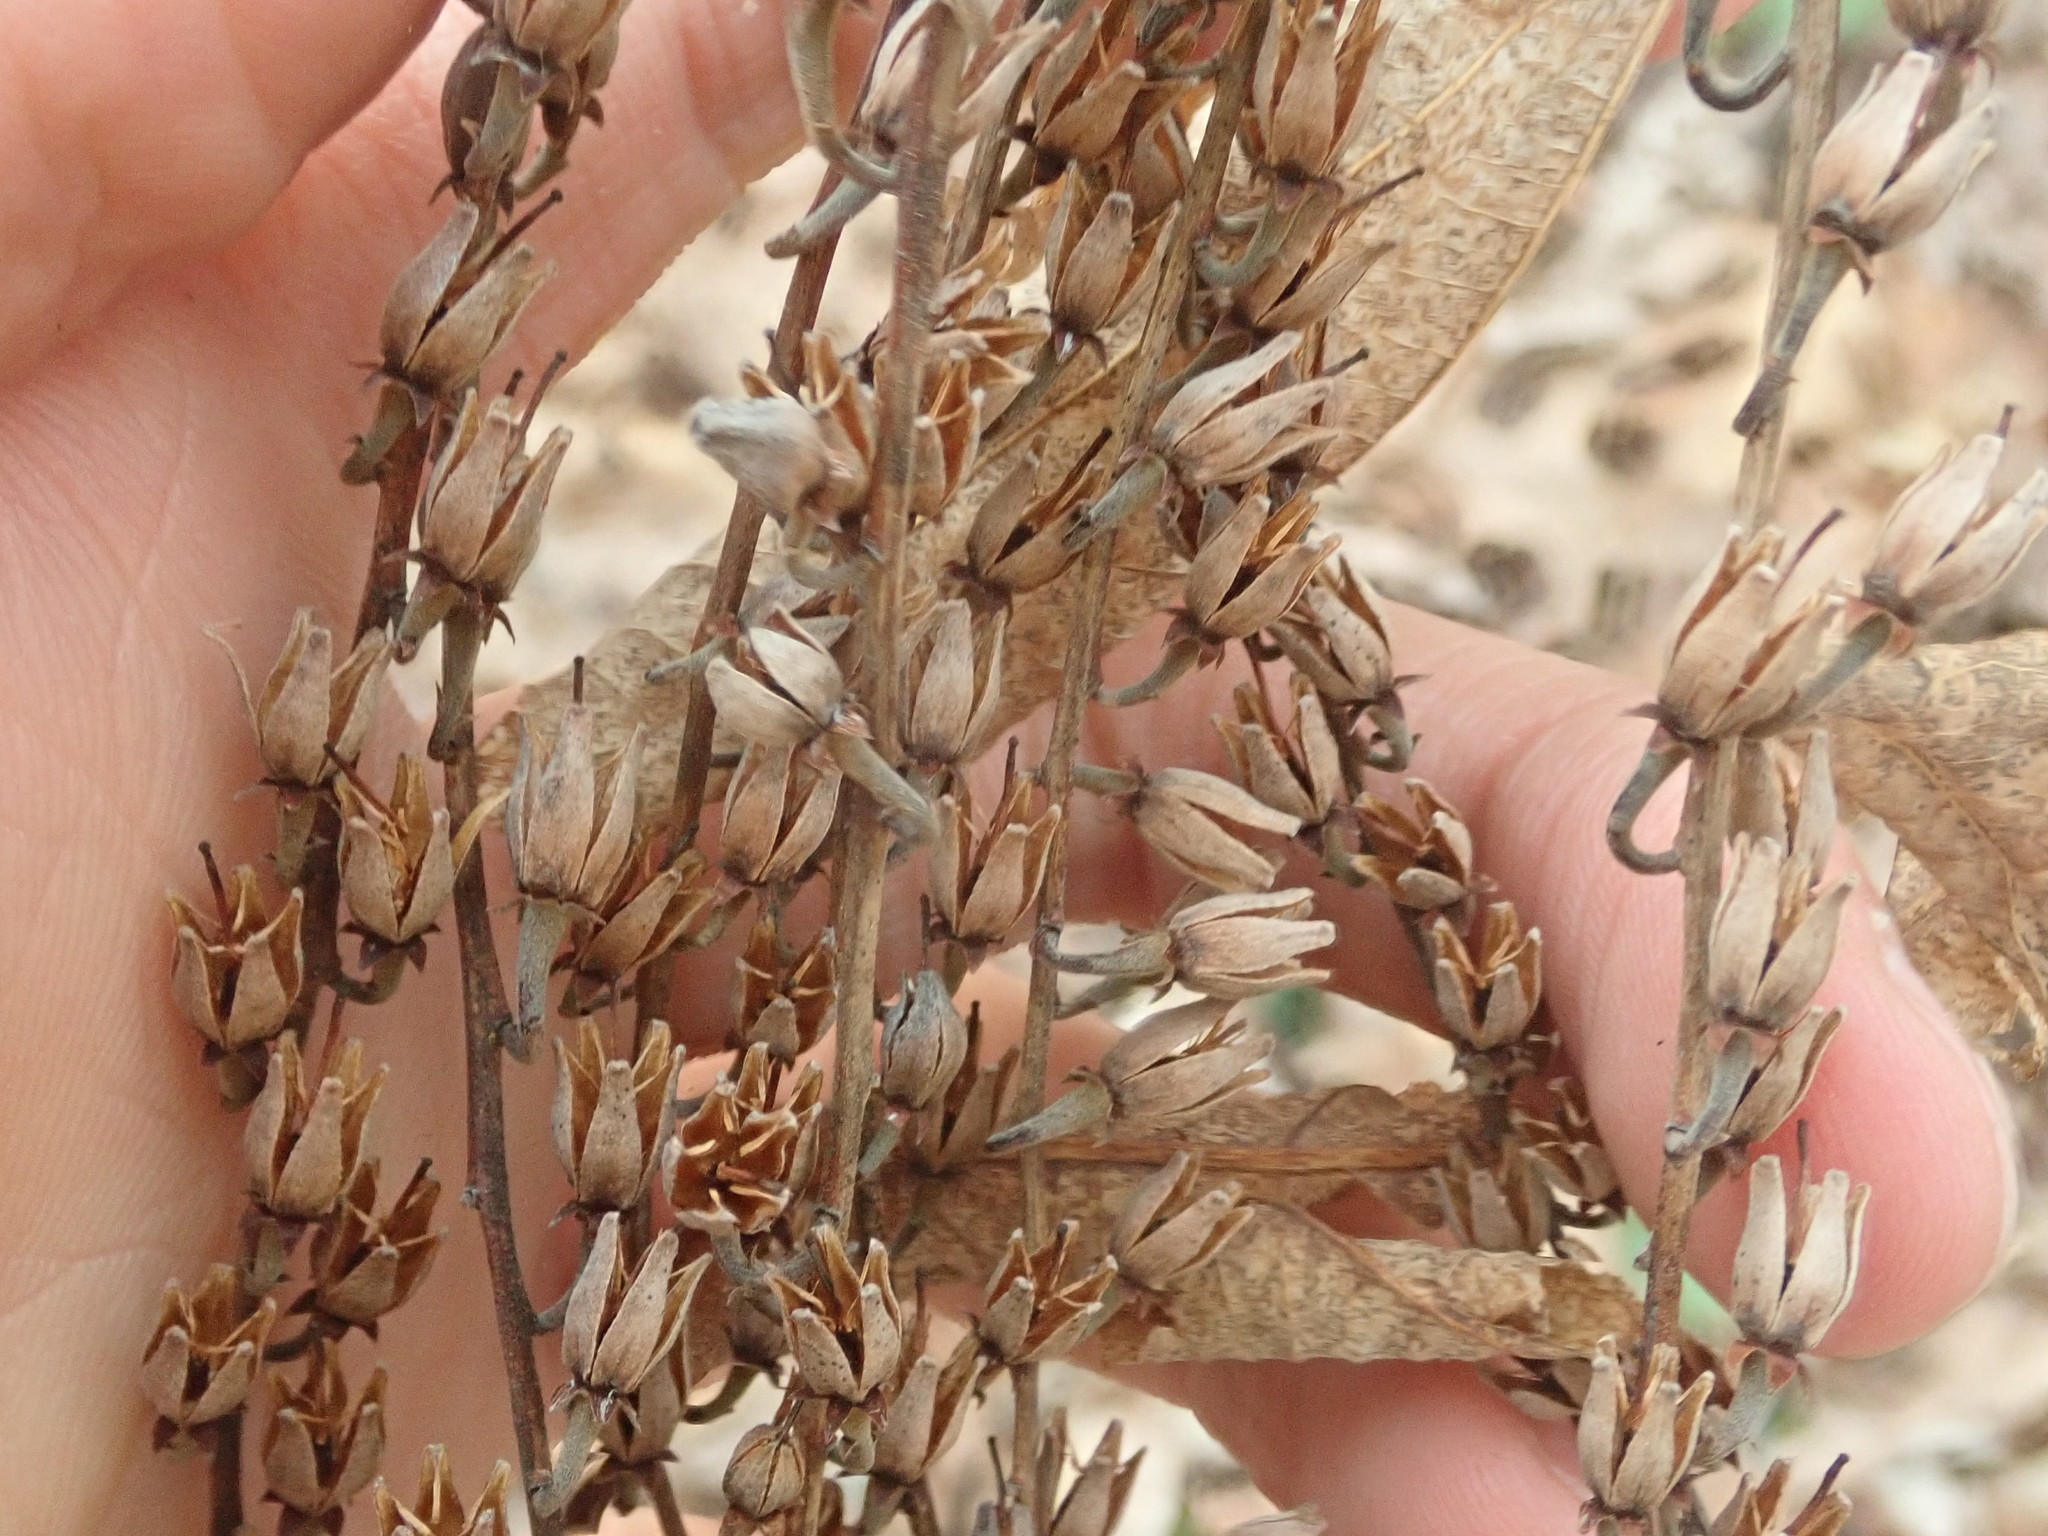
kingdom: Plantae
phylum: Tracheophyta
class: Magnoliopsida
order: Ericales
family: Ericaceae
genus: Oxydendrum
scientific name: Oxydendrum arboreum
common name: Sourwood
